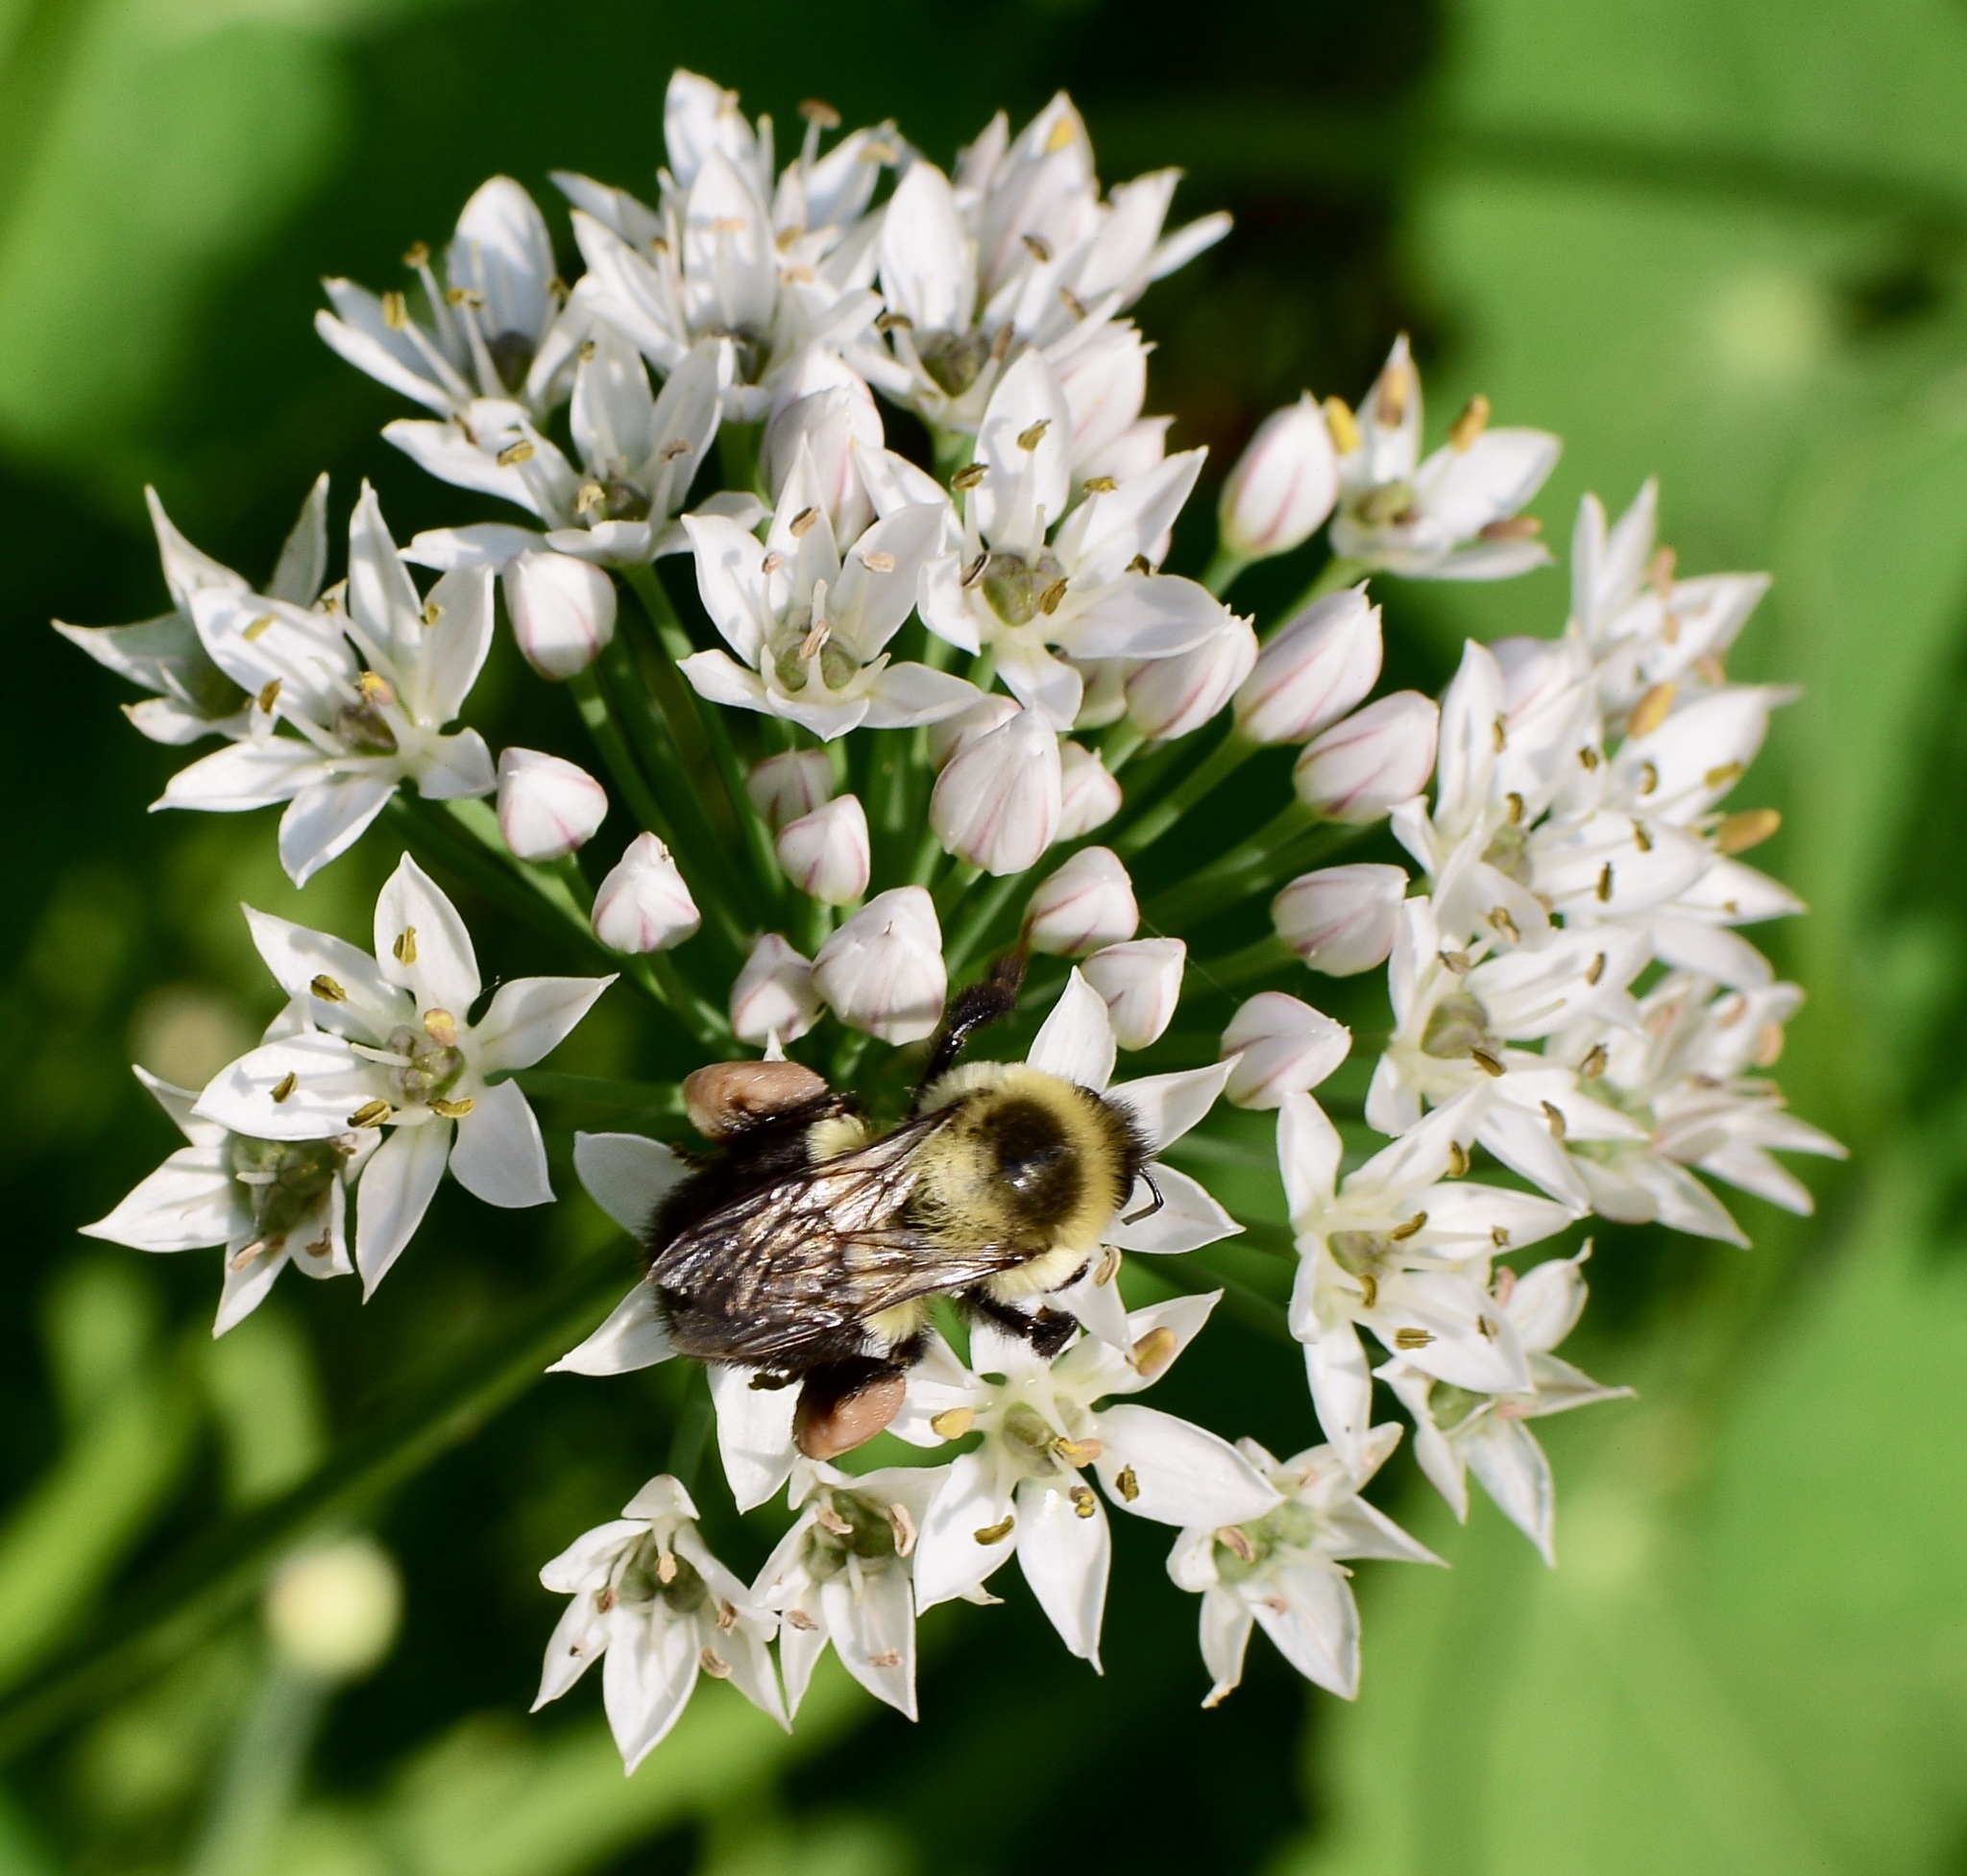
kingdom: Animalia
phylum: Arthropoda
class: Insecta
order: Hymenoptera
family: Apidae
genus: Bombus
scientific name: Bombus impatiens
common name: Common eastern bumble bee
